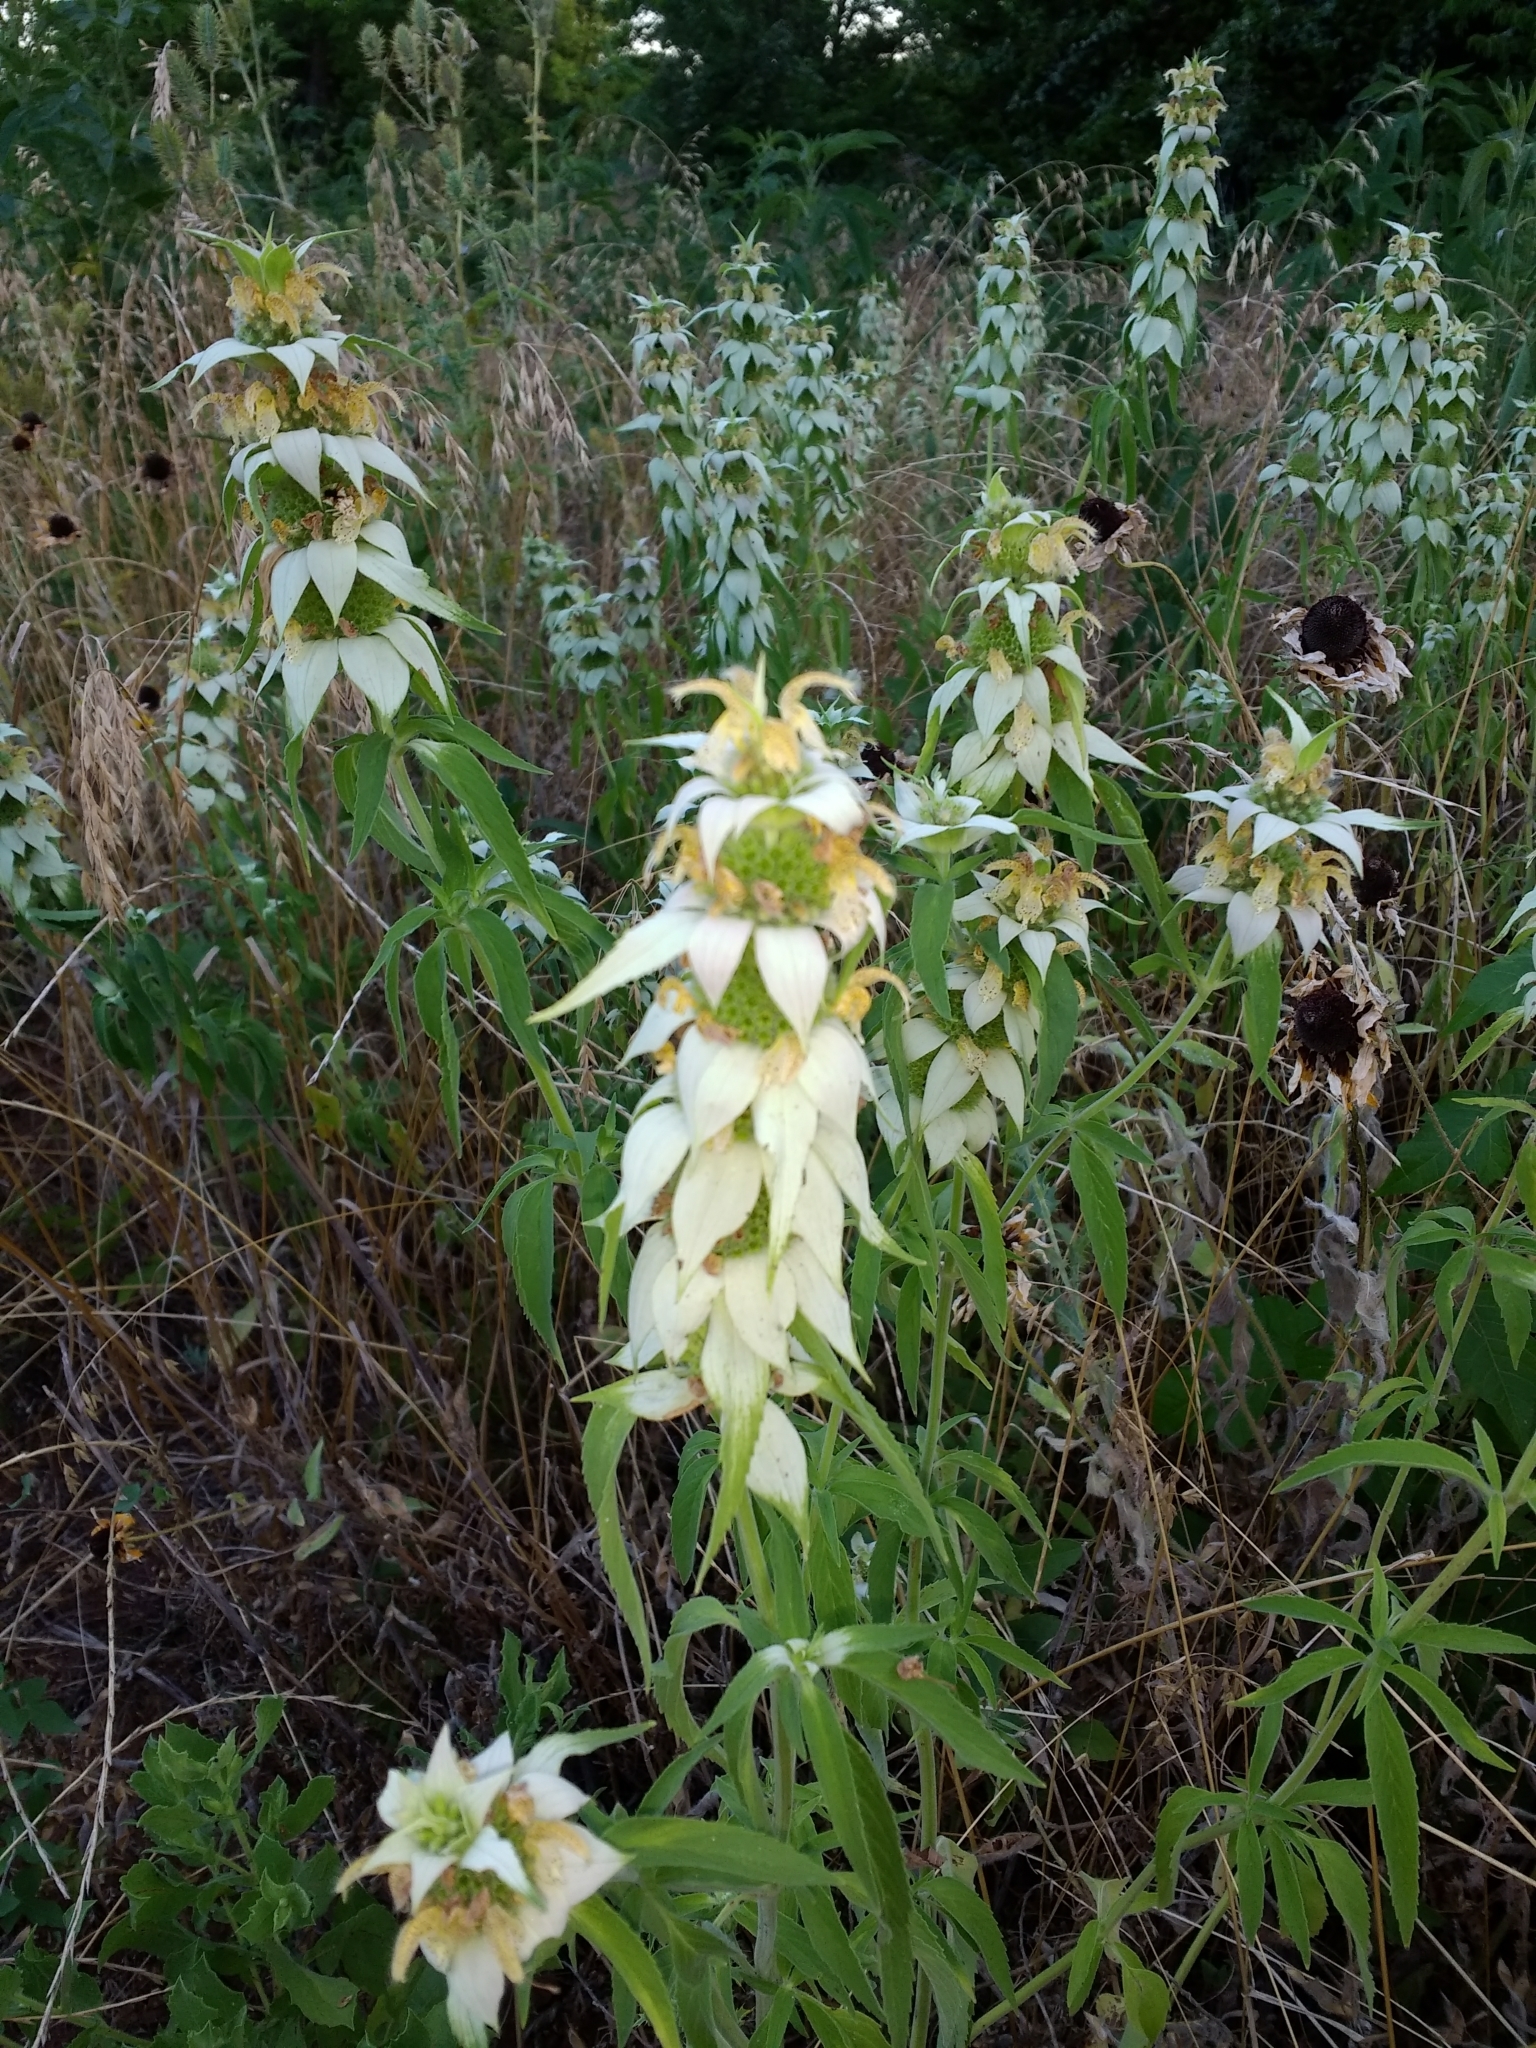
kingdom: Plantae
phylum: Tracheophyta
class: Magnoliopsida
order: Lamiales
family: Lamiaceae
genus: Monarda
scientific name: Monarda punctata
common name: Dotted monarda
